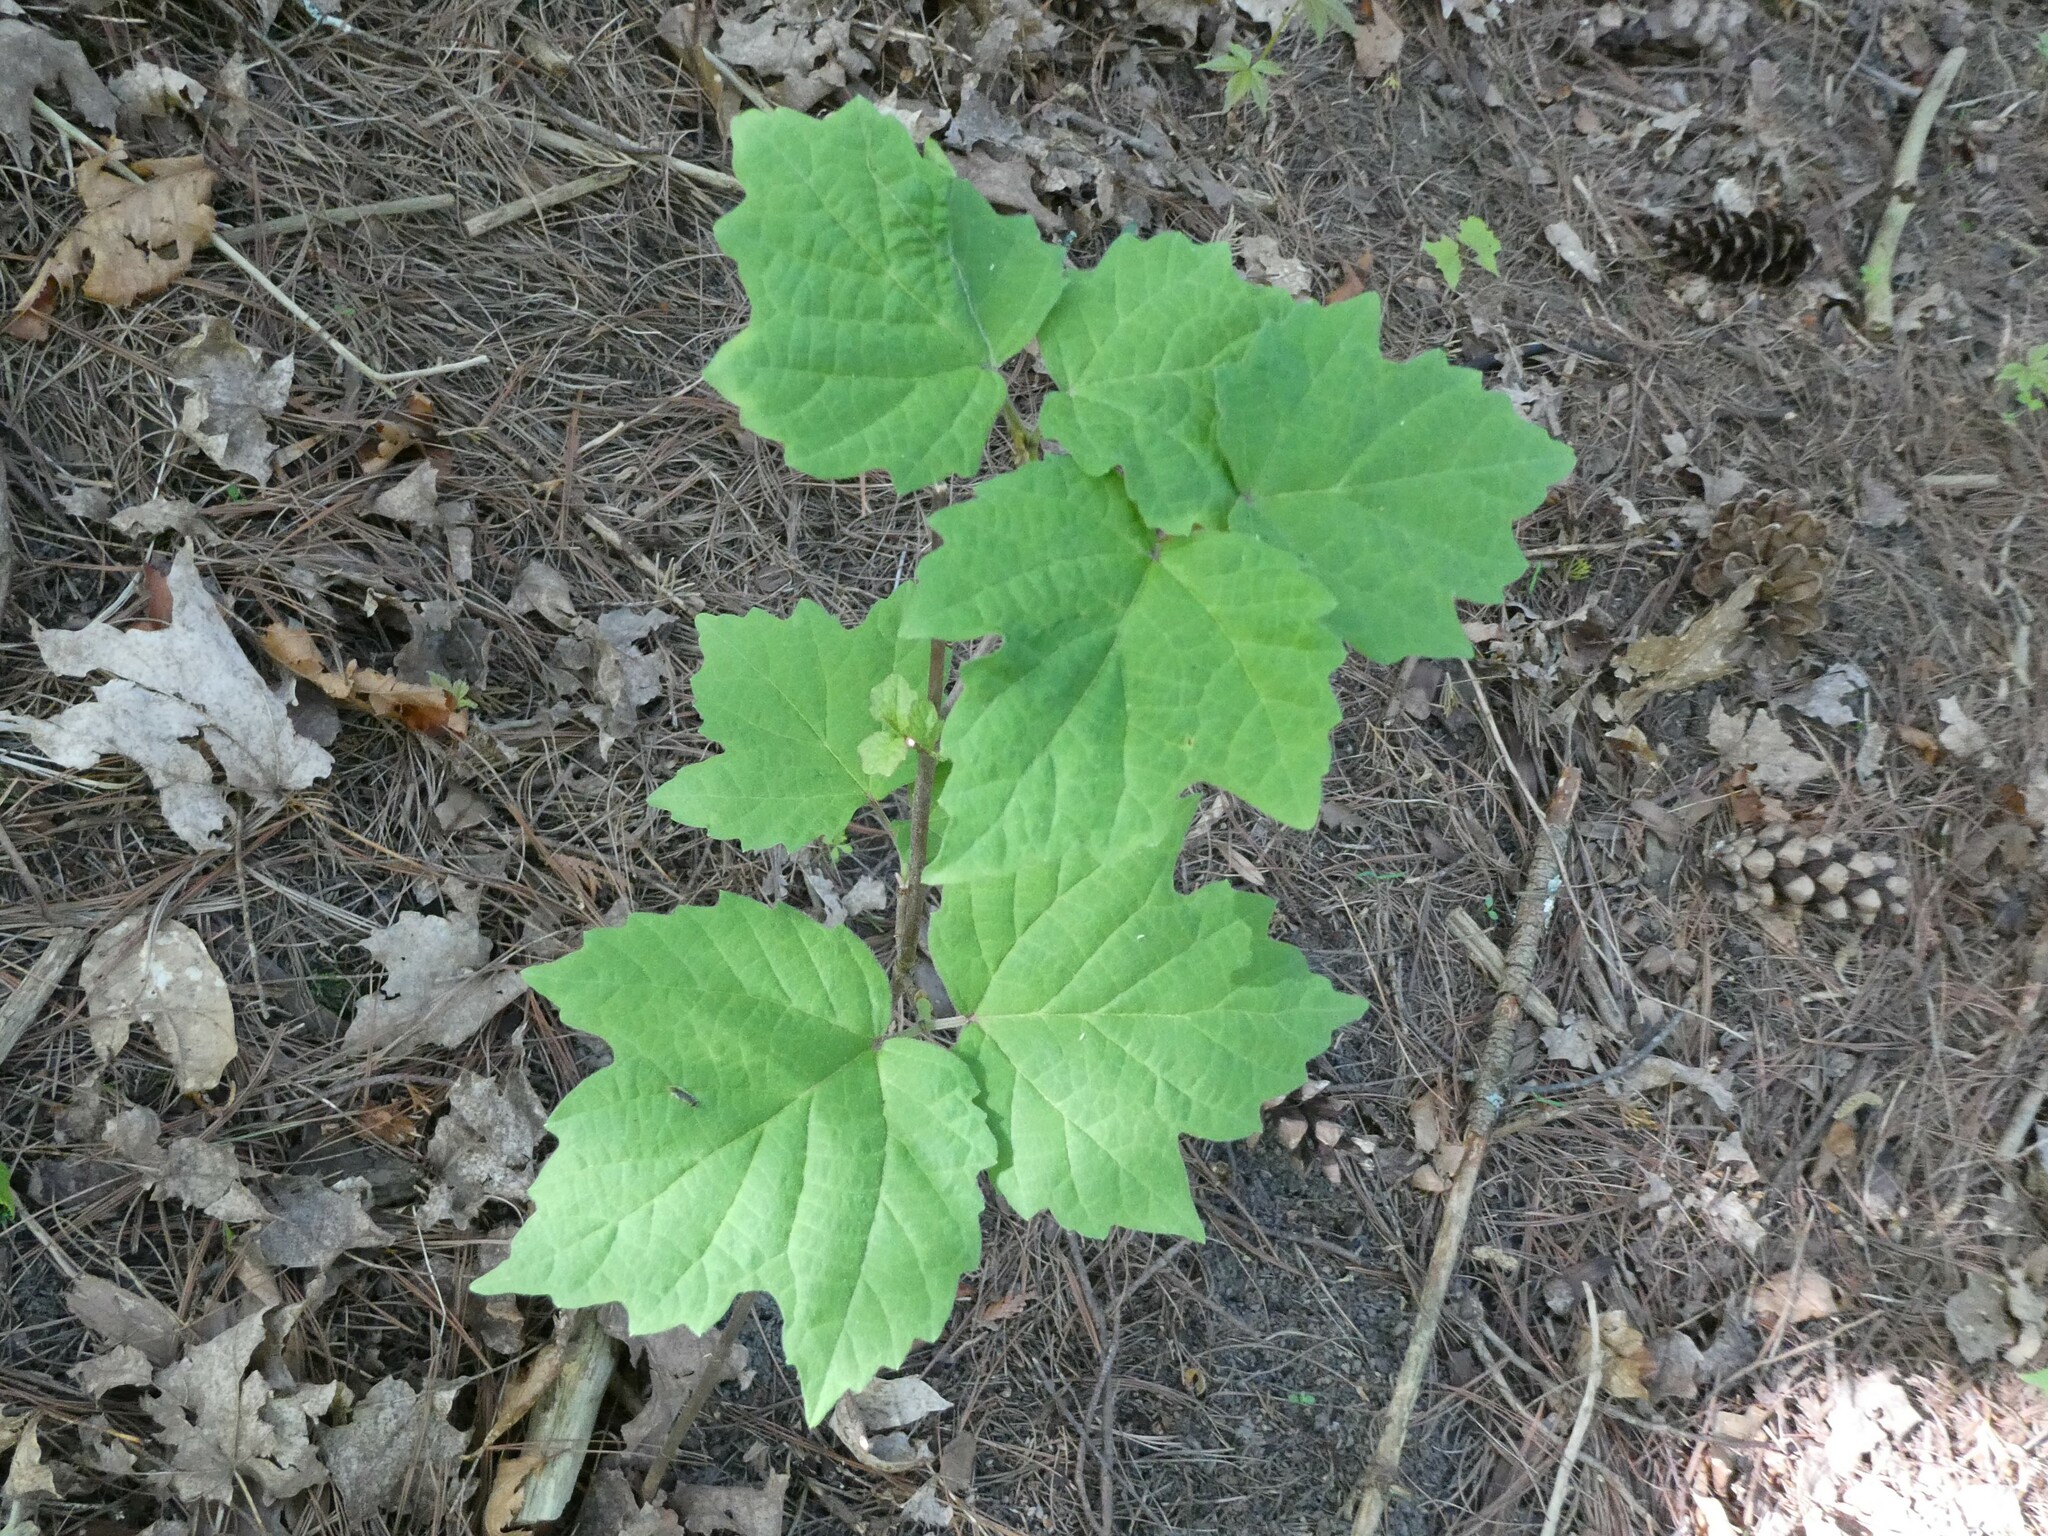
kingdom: Plantae
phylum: Tracheophyta
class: Magnoliopsida
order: Dipsacales
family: Viburnaceae
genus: Viburnum
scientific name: Viburnum acerifolium
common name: Dockmackie
